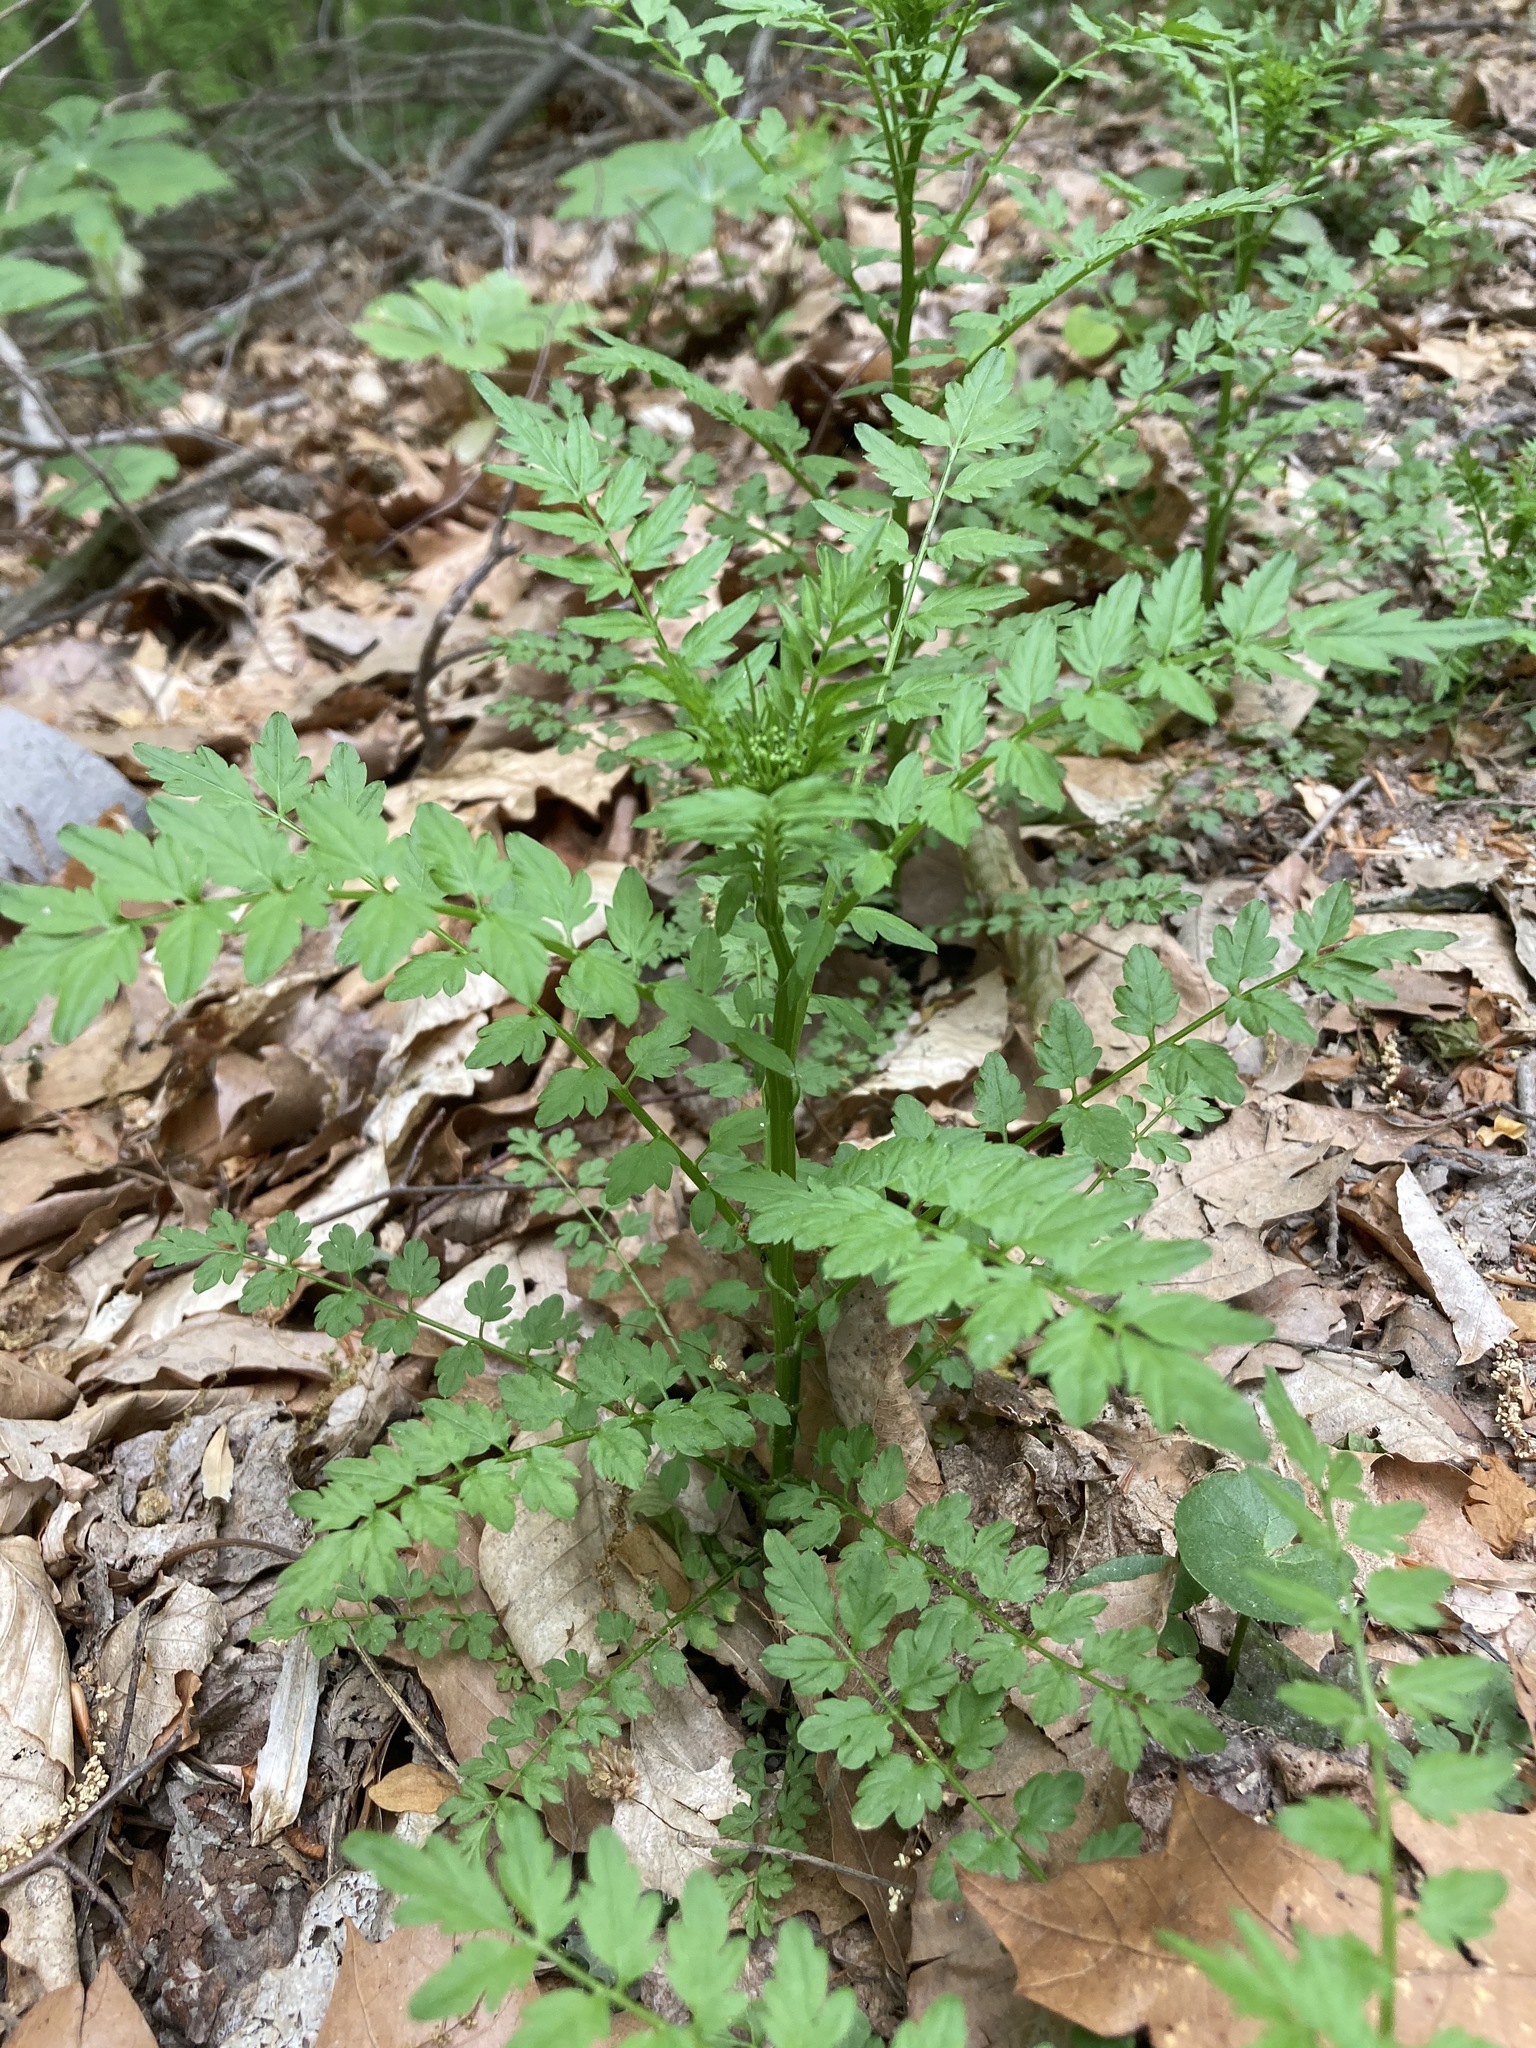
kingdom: Plantae
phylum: Tracheophyta
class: Magnoliopsida
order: Brassicales
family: Brassicaceae
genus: Cardamine
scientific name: Cardamine impatiens
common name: Narrow-leaved bitter-cress
